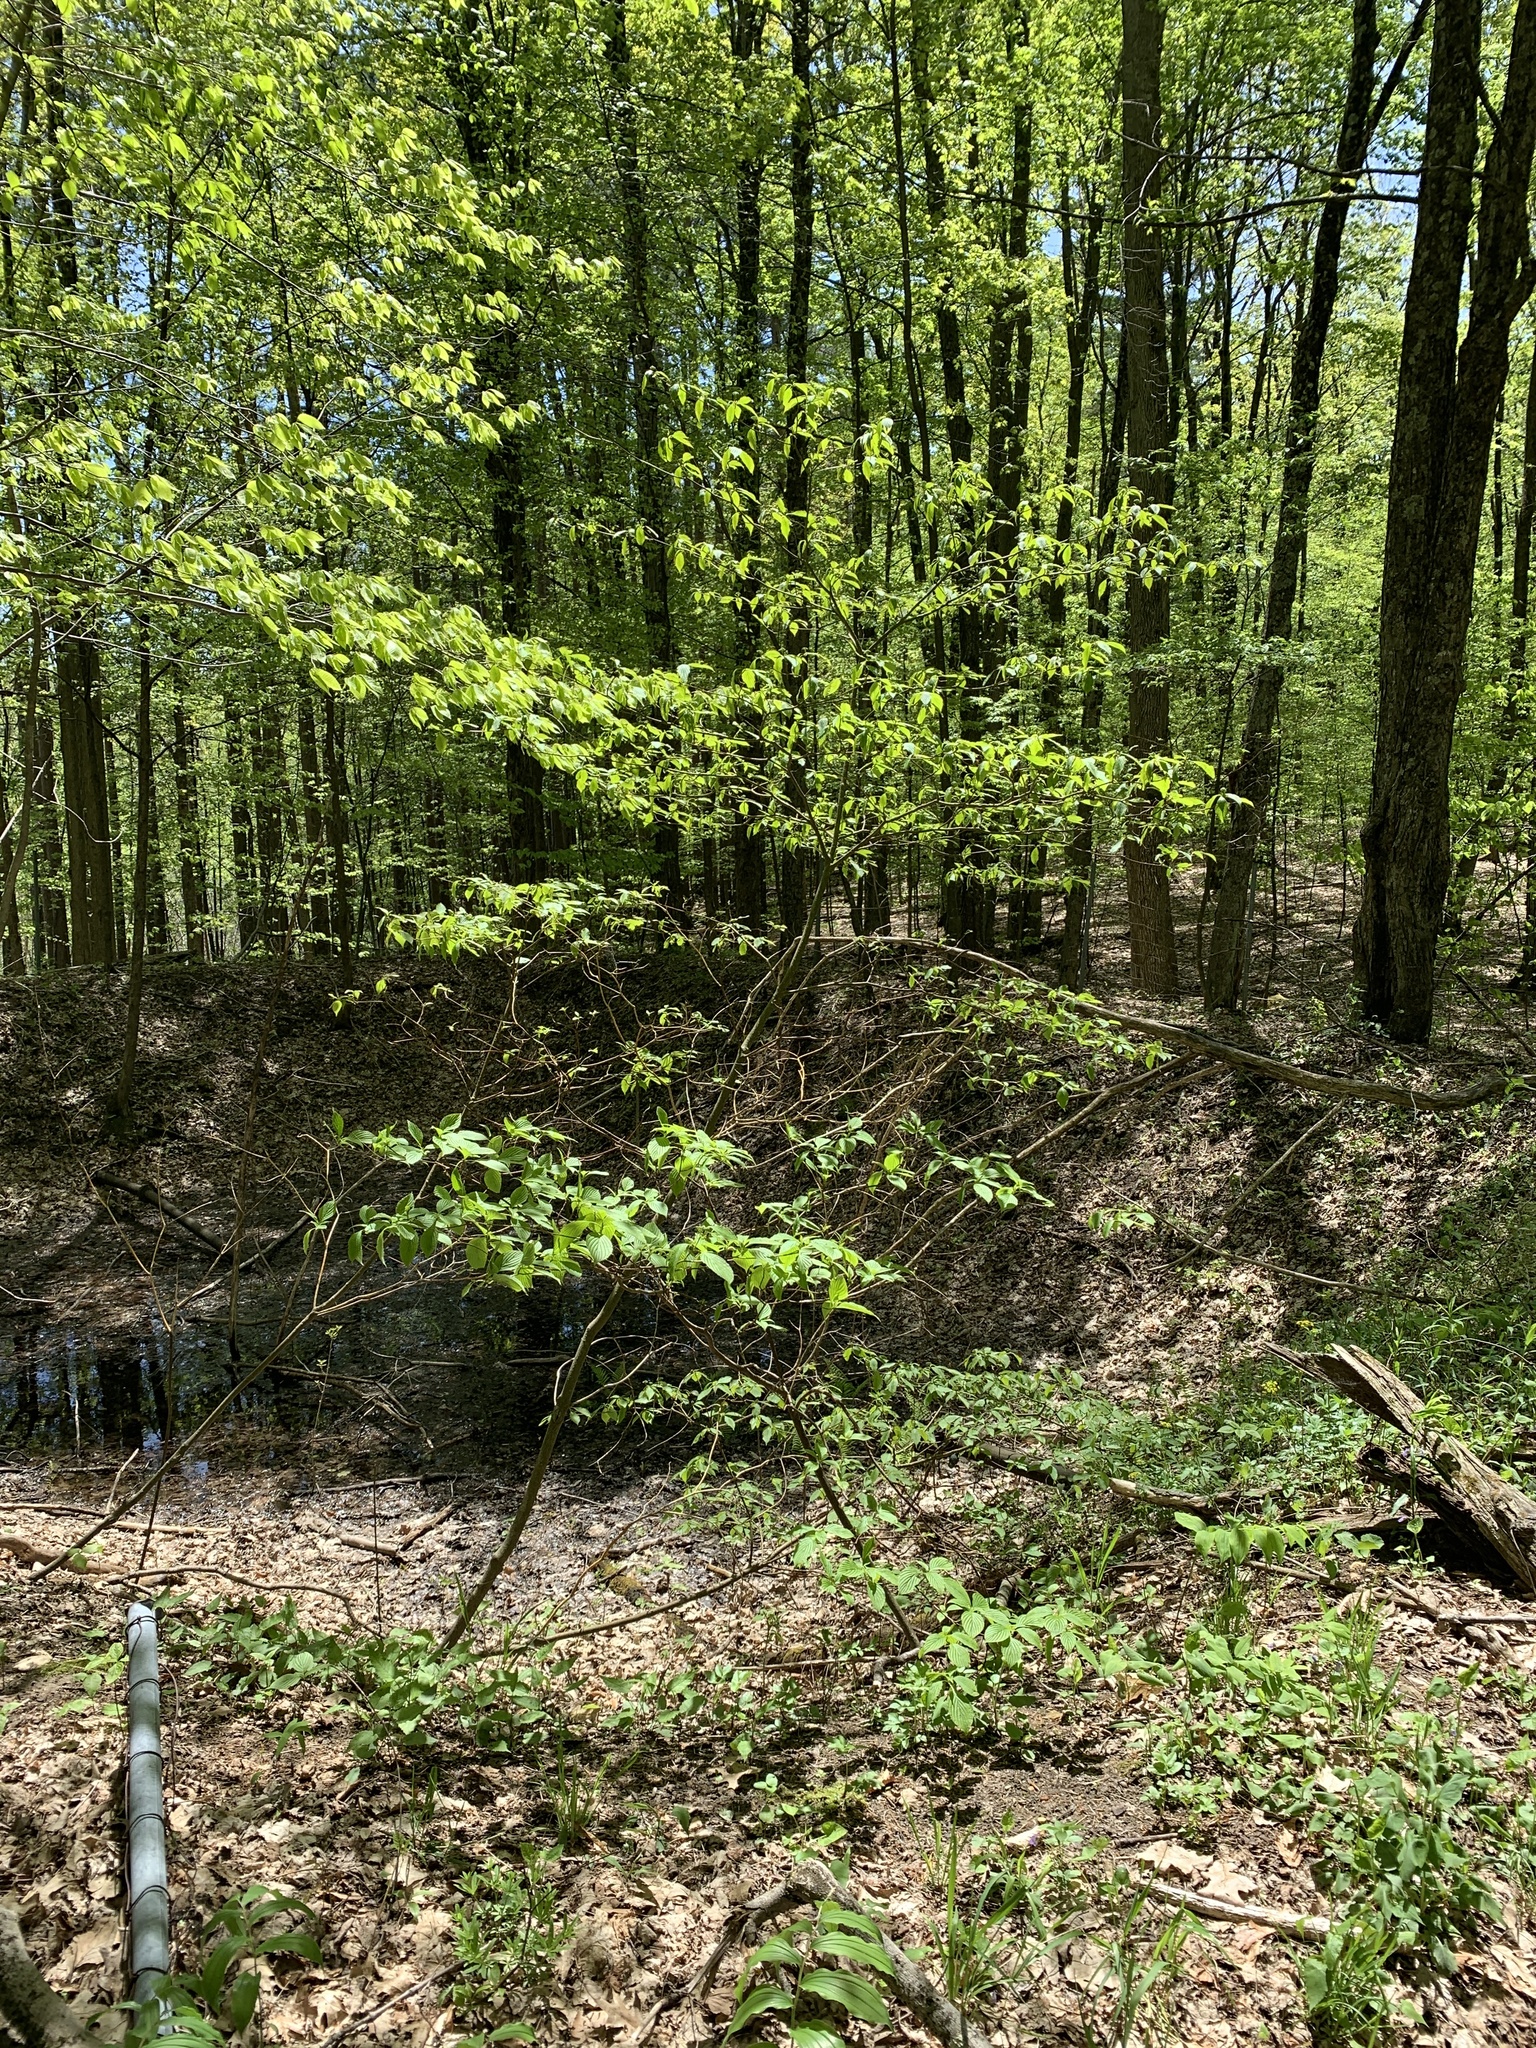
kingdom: Plantae
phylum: Tracheophyta
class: Magnoliopsida
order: Cornales
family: Cornaceae
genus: Cornus
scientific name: Cornus alternifolia
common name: Pagoda dogwood
